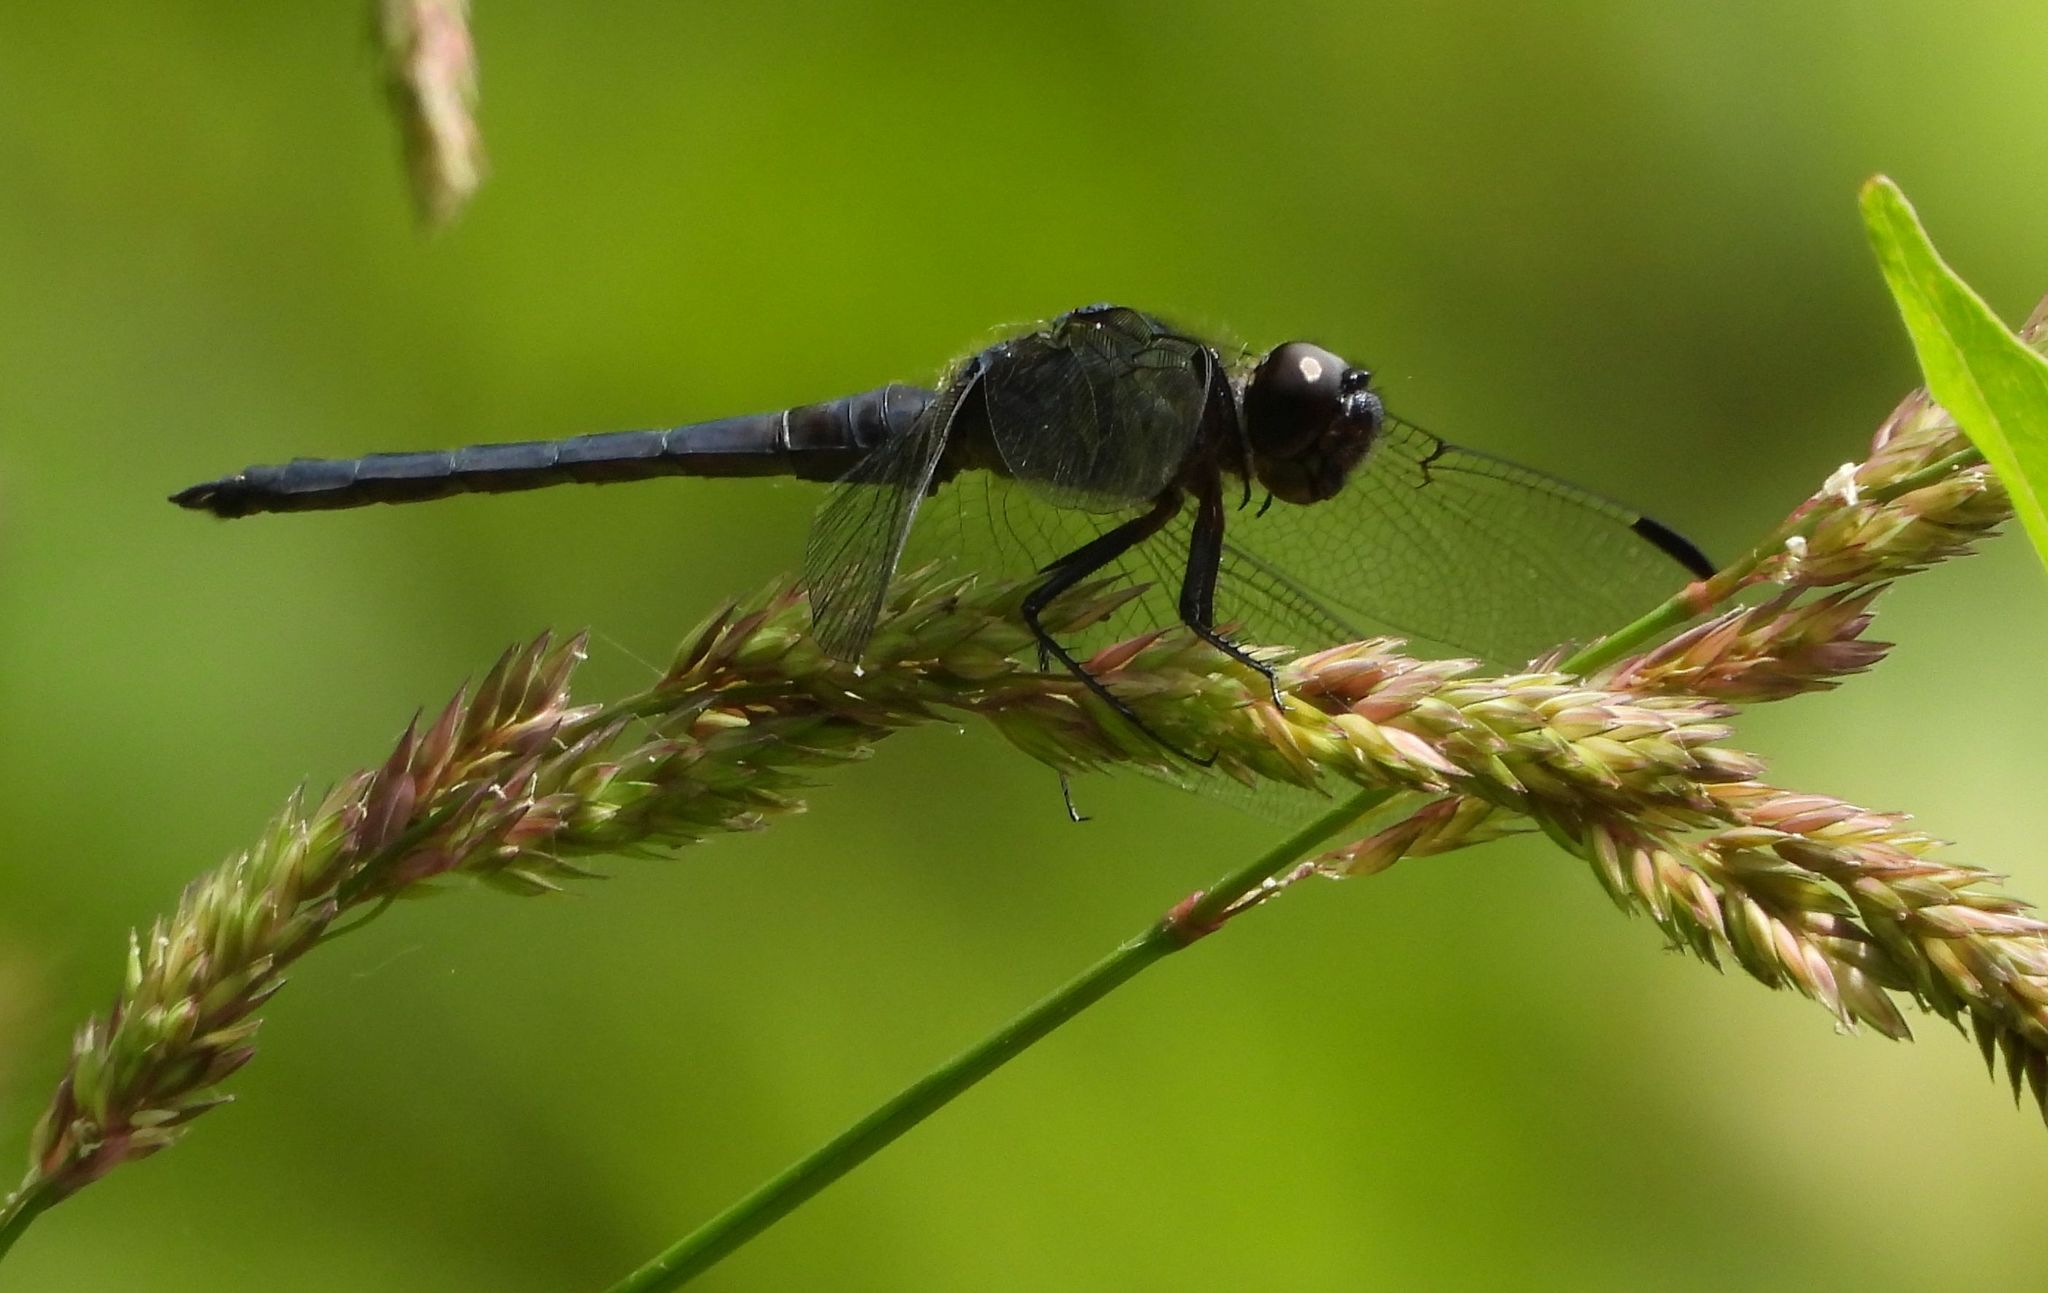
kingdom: Animalia
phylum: Arthropoda
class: Insecta
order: Odonata
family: Libellulidae
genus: Libellula
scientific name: Libellula incesta
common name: Slaty skimmer
